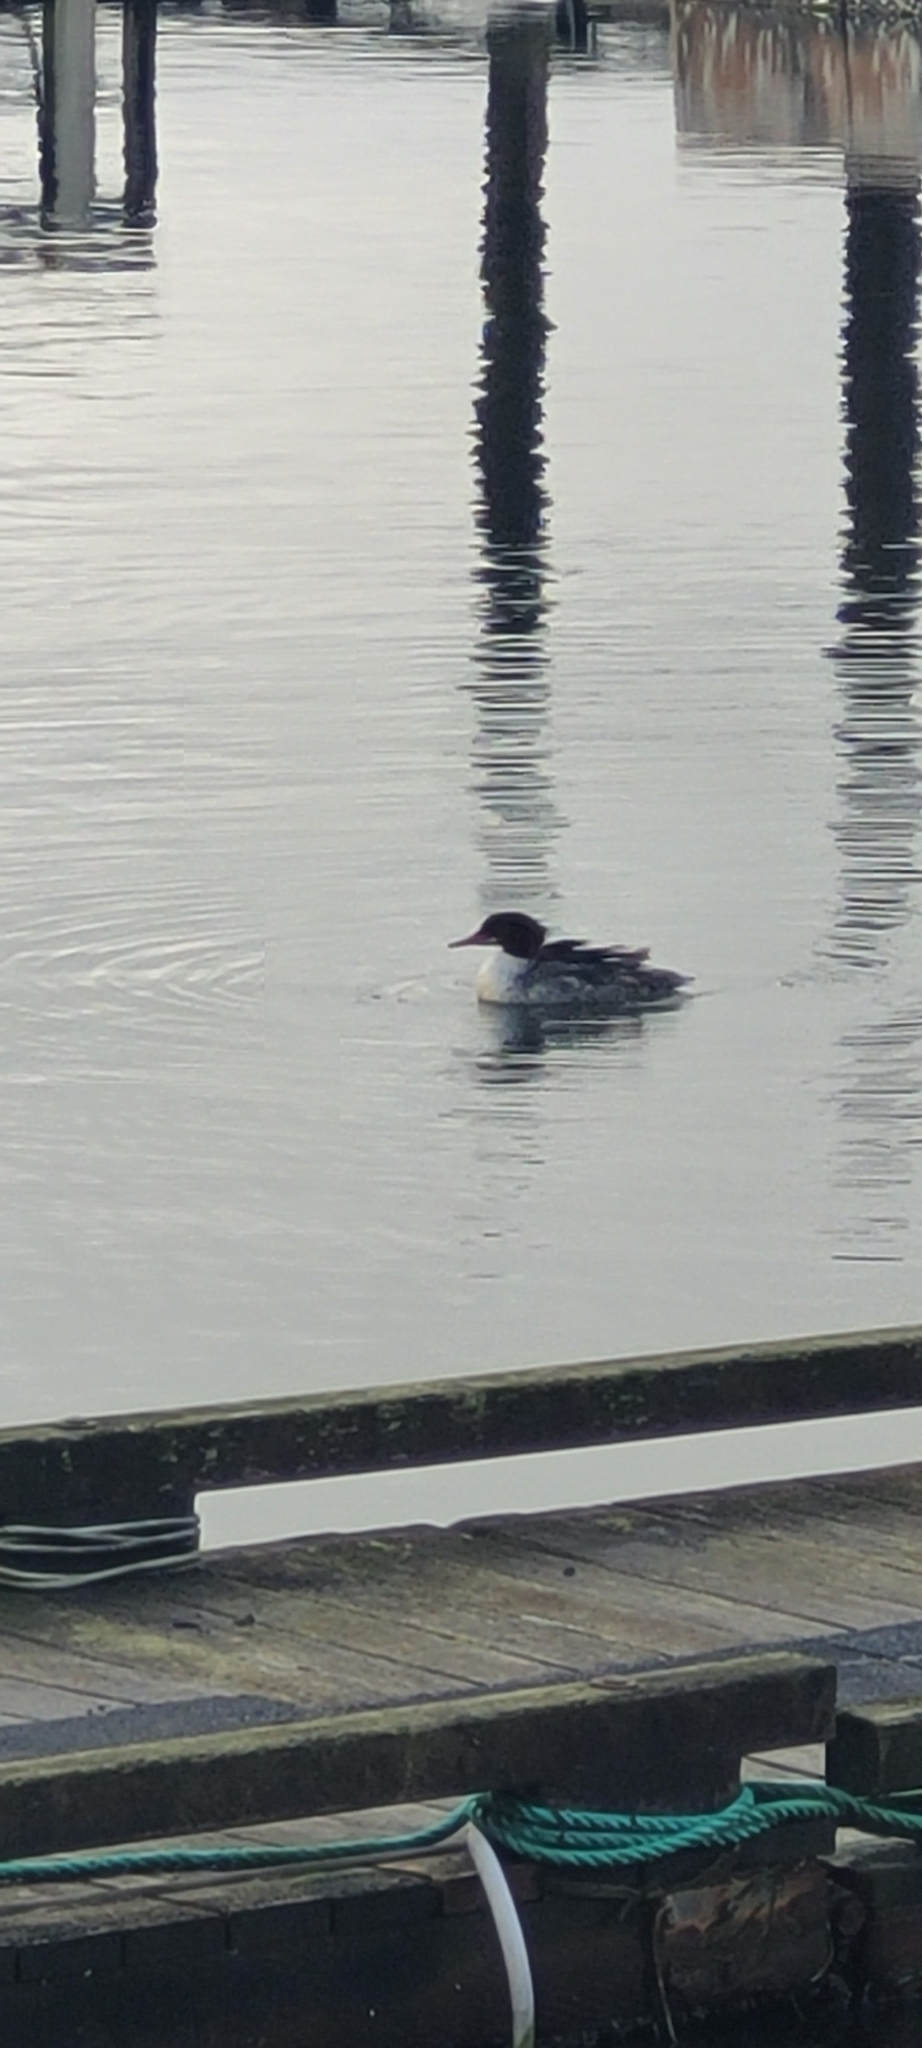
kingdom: Animalia
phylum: Chordata
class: Aves
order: Anseriformes
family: Anatidae
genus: Mergus
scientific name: Mergus merganser
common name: Common merganser
